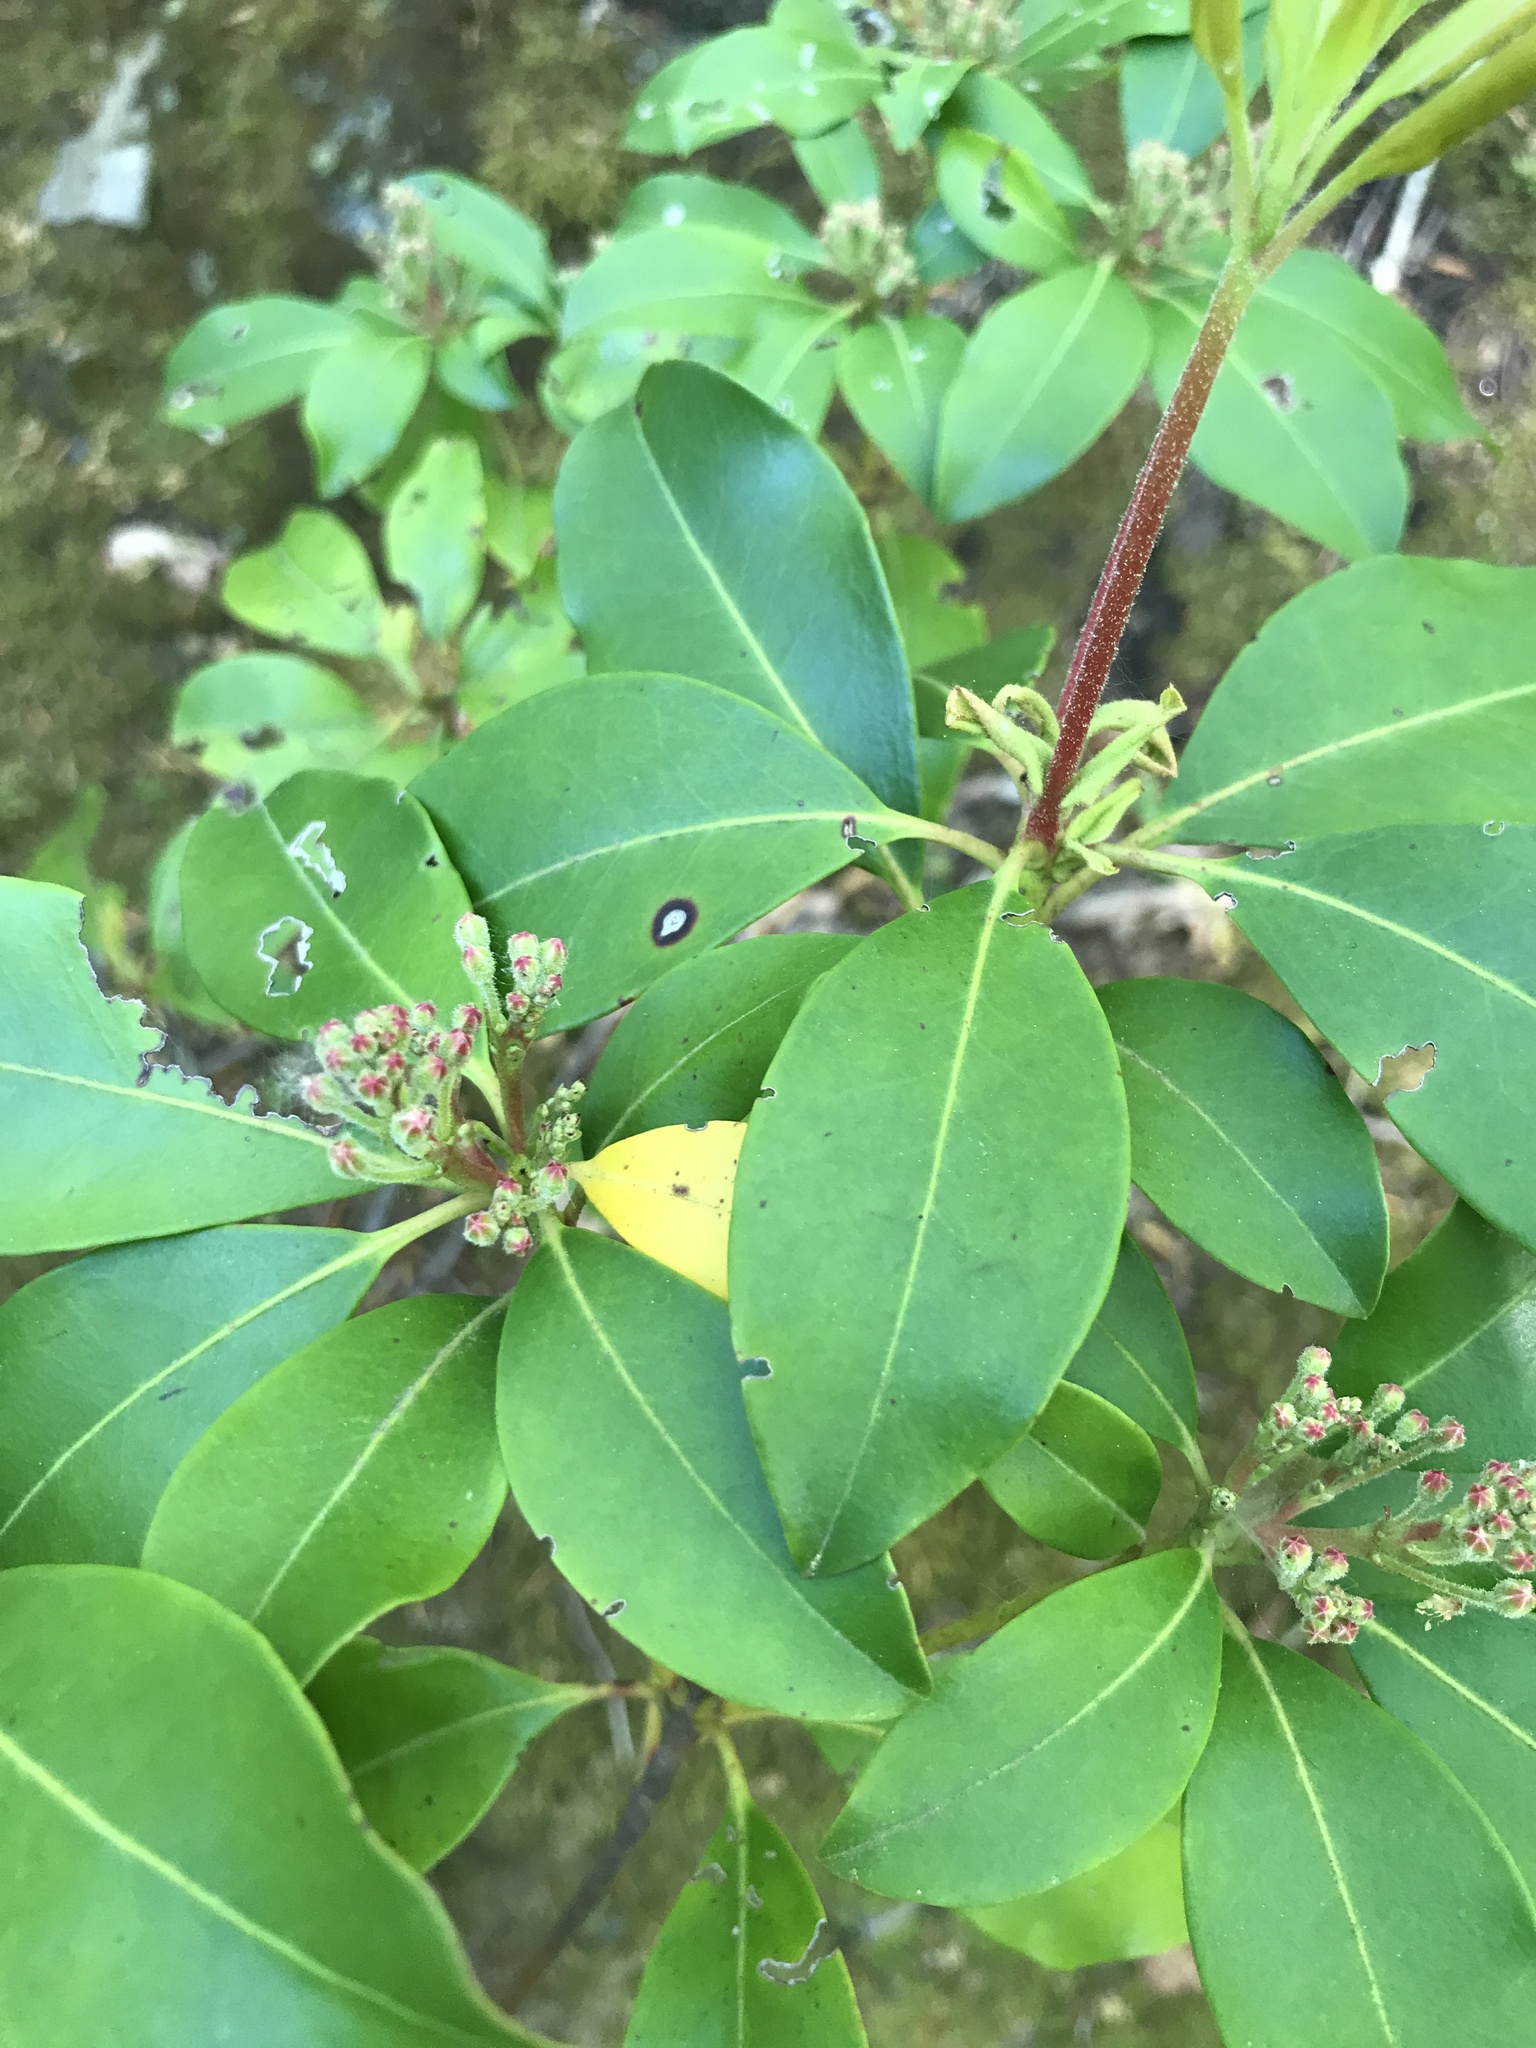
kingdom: Plantae
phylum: Tracheophyta
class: Magnoliopsida
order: Ericales
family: Ericaceae
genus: Kalmia
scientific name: Kalmia latifolia
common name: Mountain-laurel
